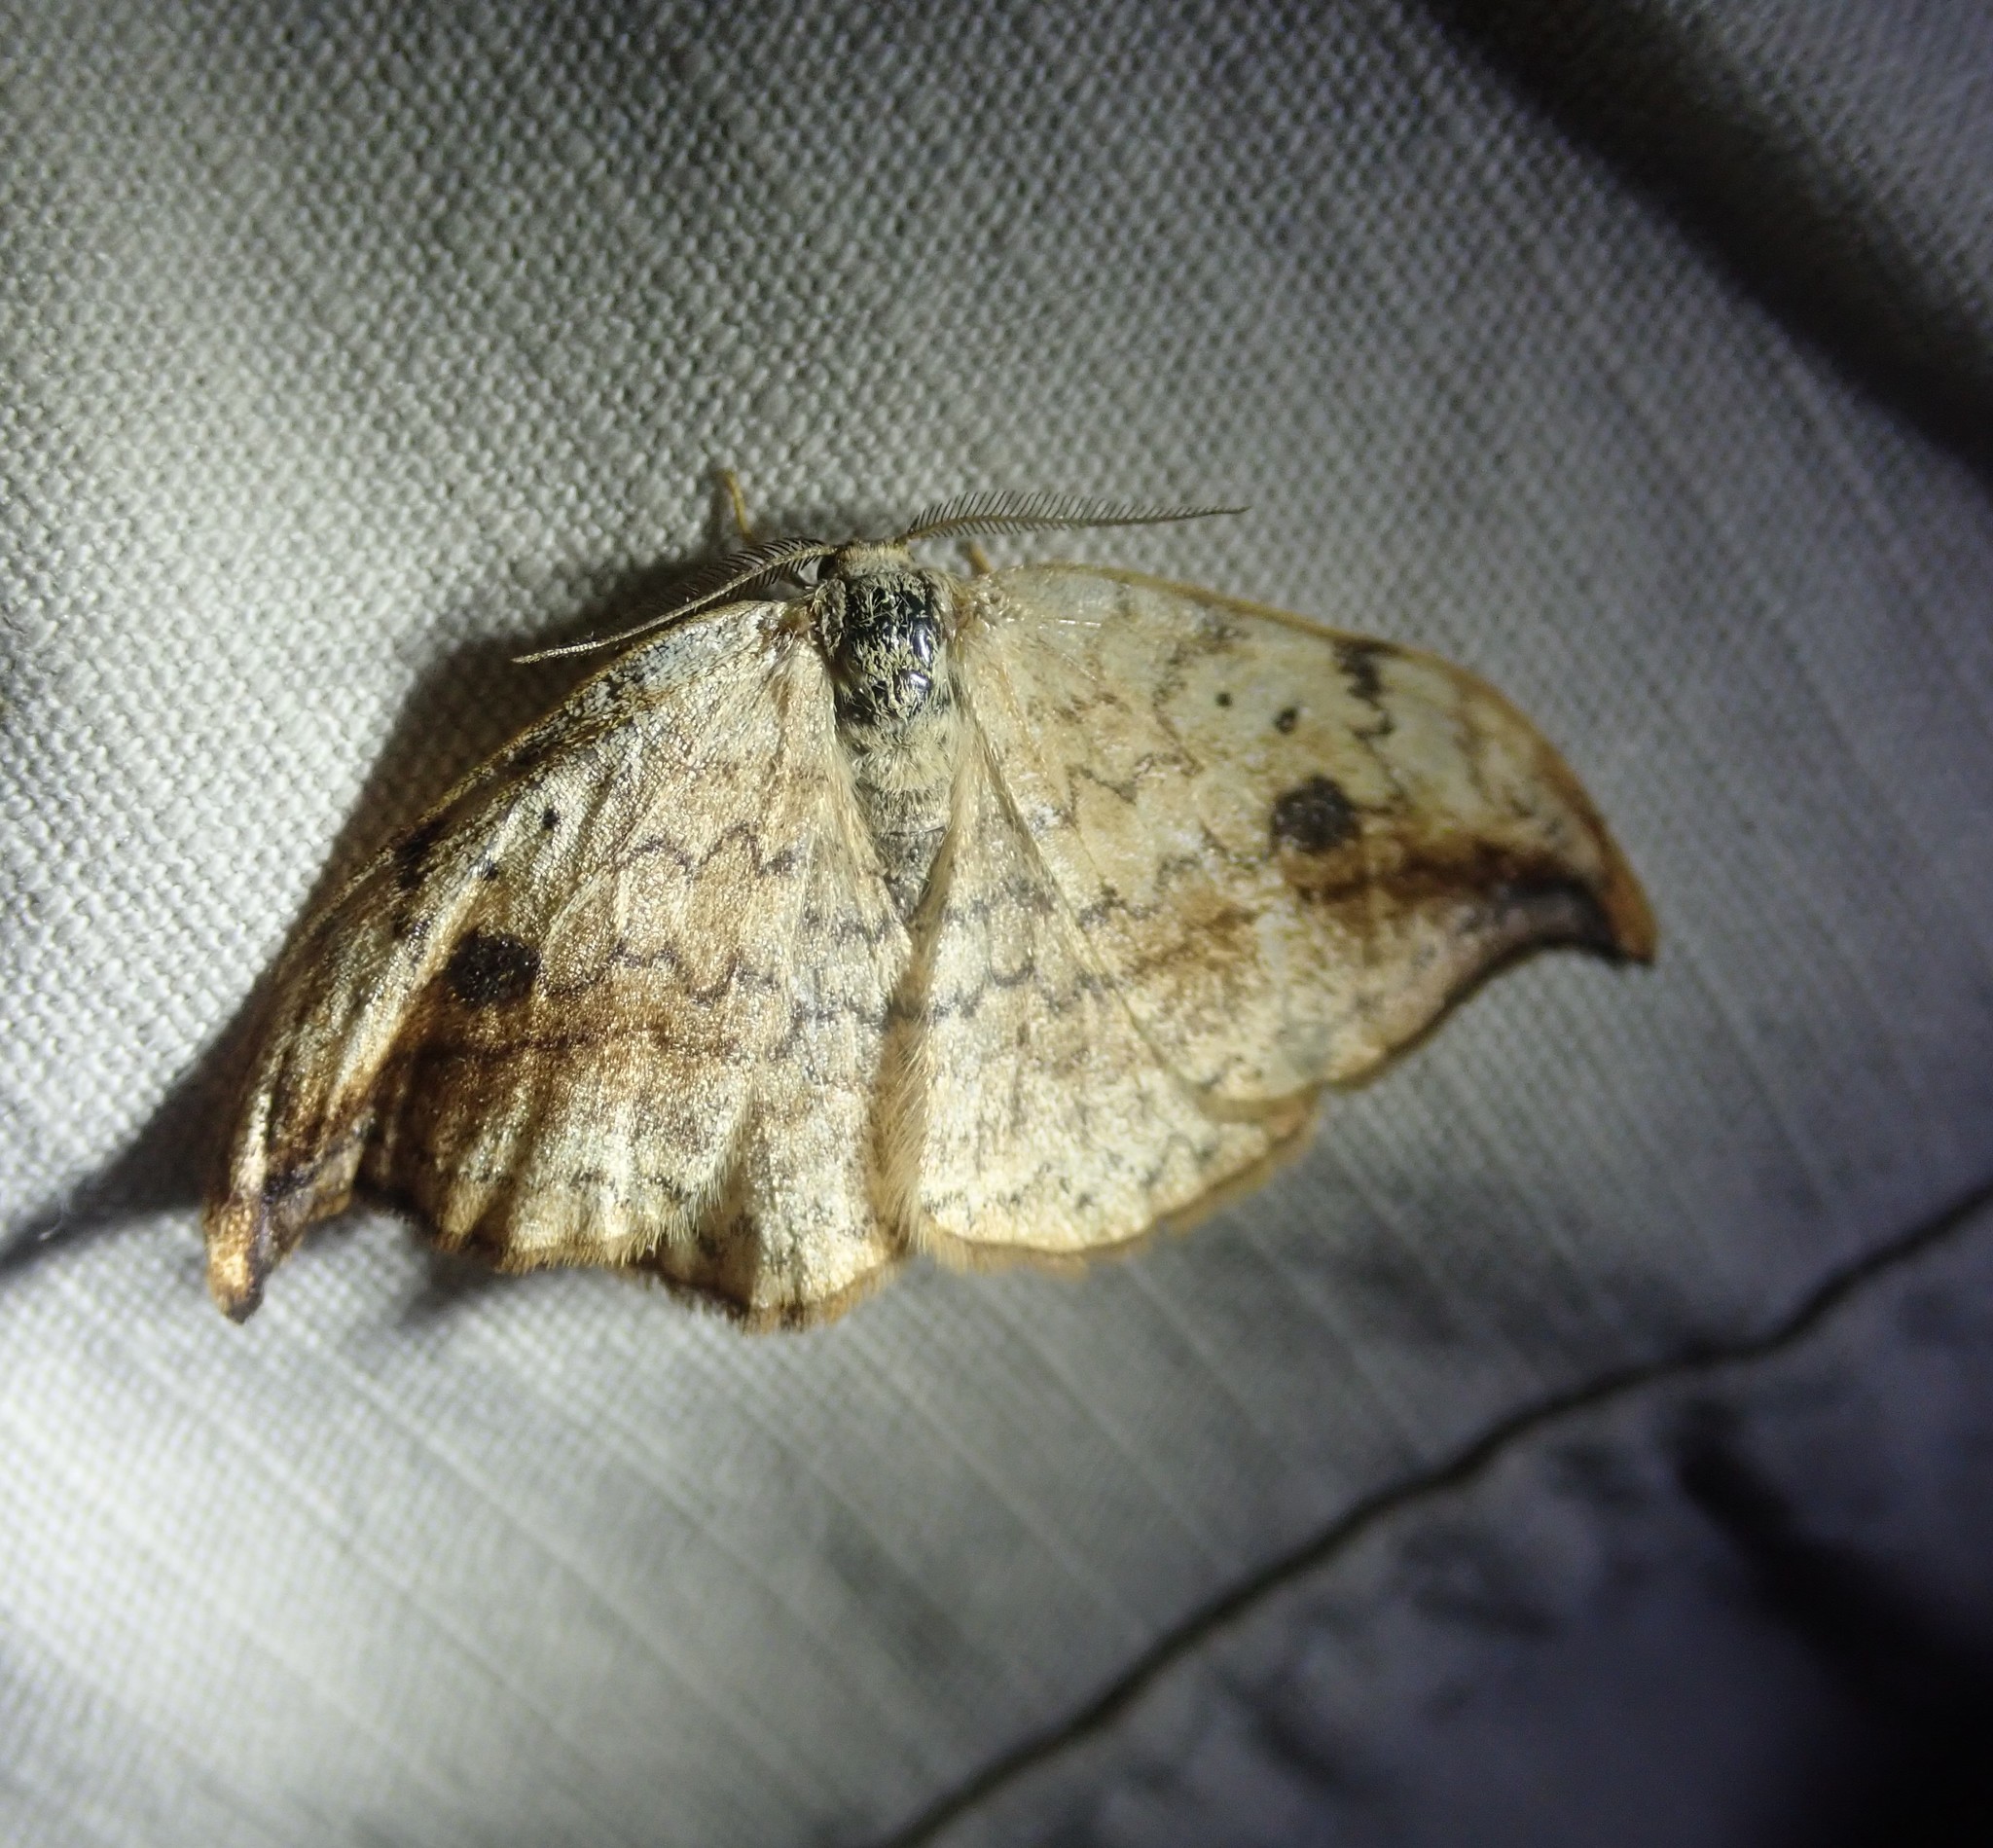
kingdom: Animalia
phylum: Arthropoda
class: Insecta
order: Lepidoptera
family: Drepanidae
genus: Drepana
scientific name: Drepana falcataria
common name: Pebble hook-tip
